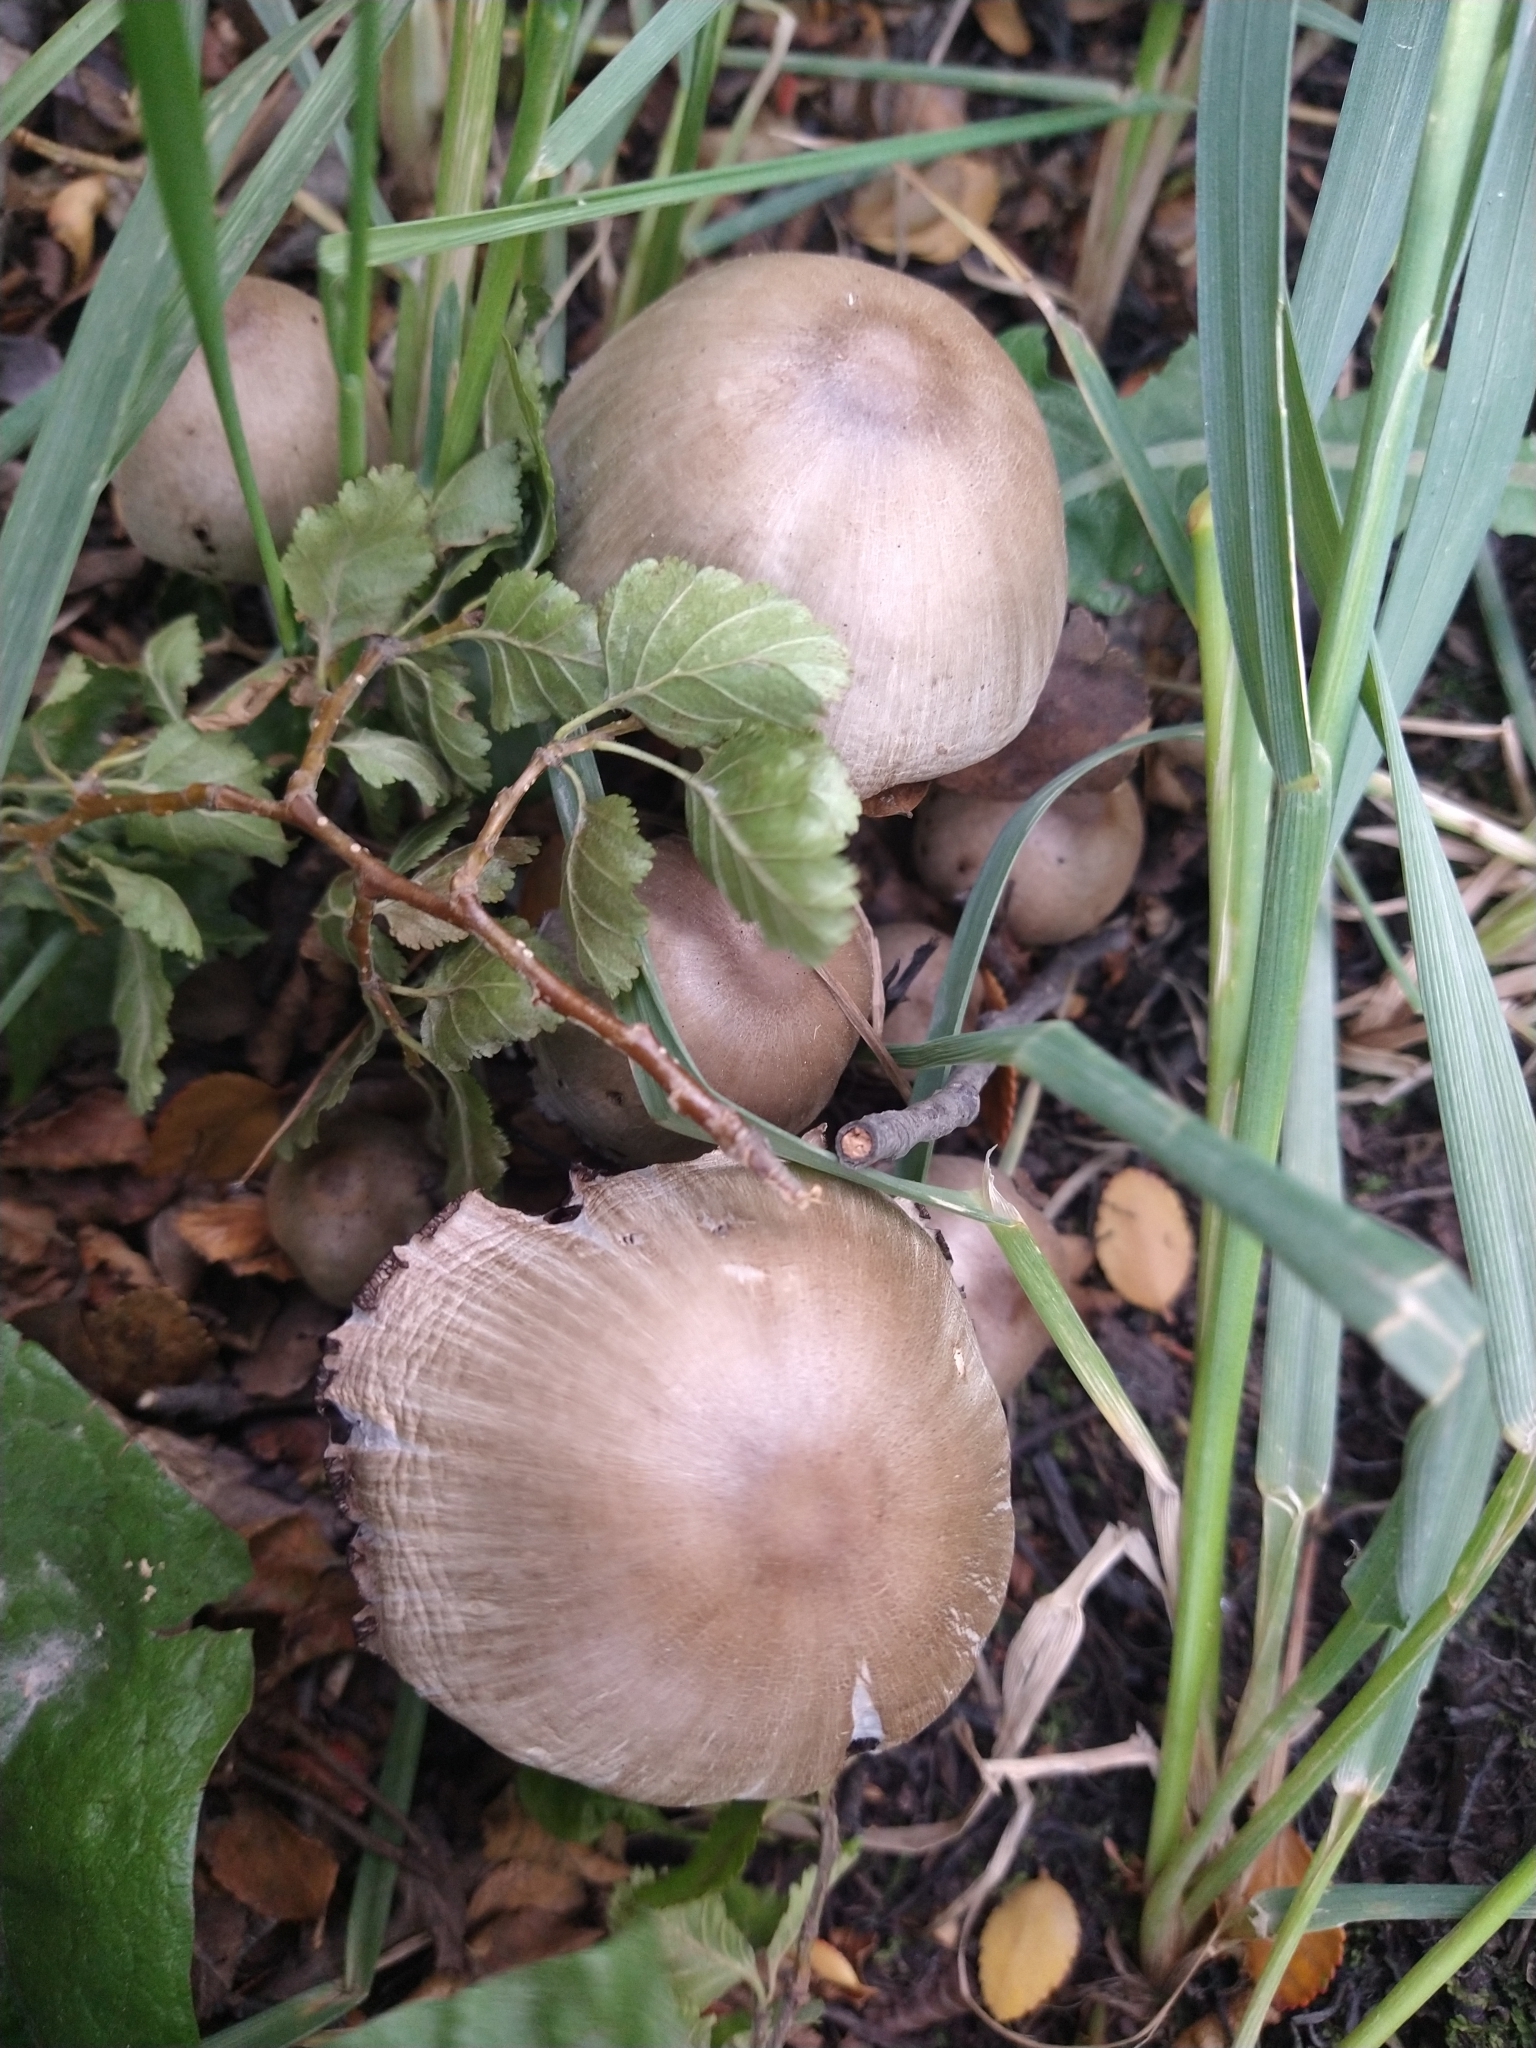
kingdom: Fungi
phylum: Basidiomycota
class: Agaricomycetes
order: Agaricales
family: Psathyrellaceae
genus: Coprinopsis
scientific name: Coprinopsis atramentaria
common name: Common ink-cap
